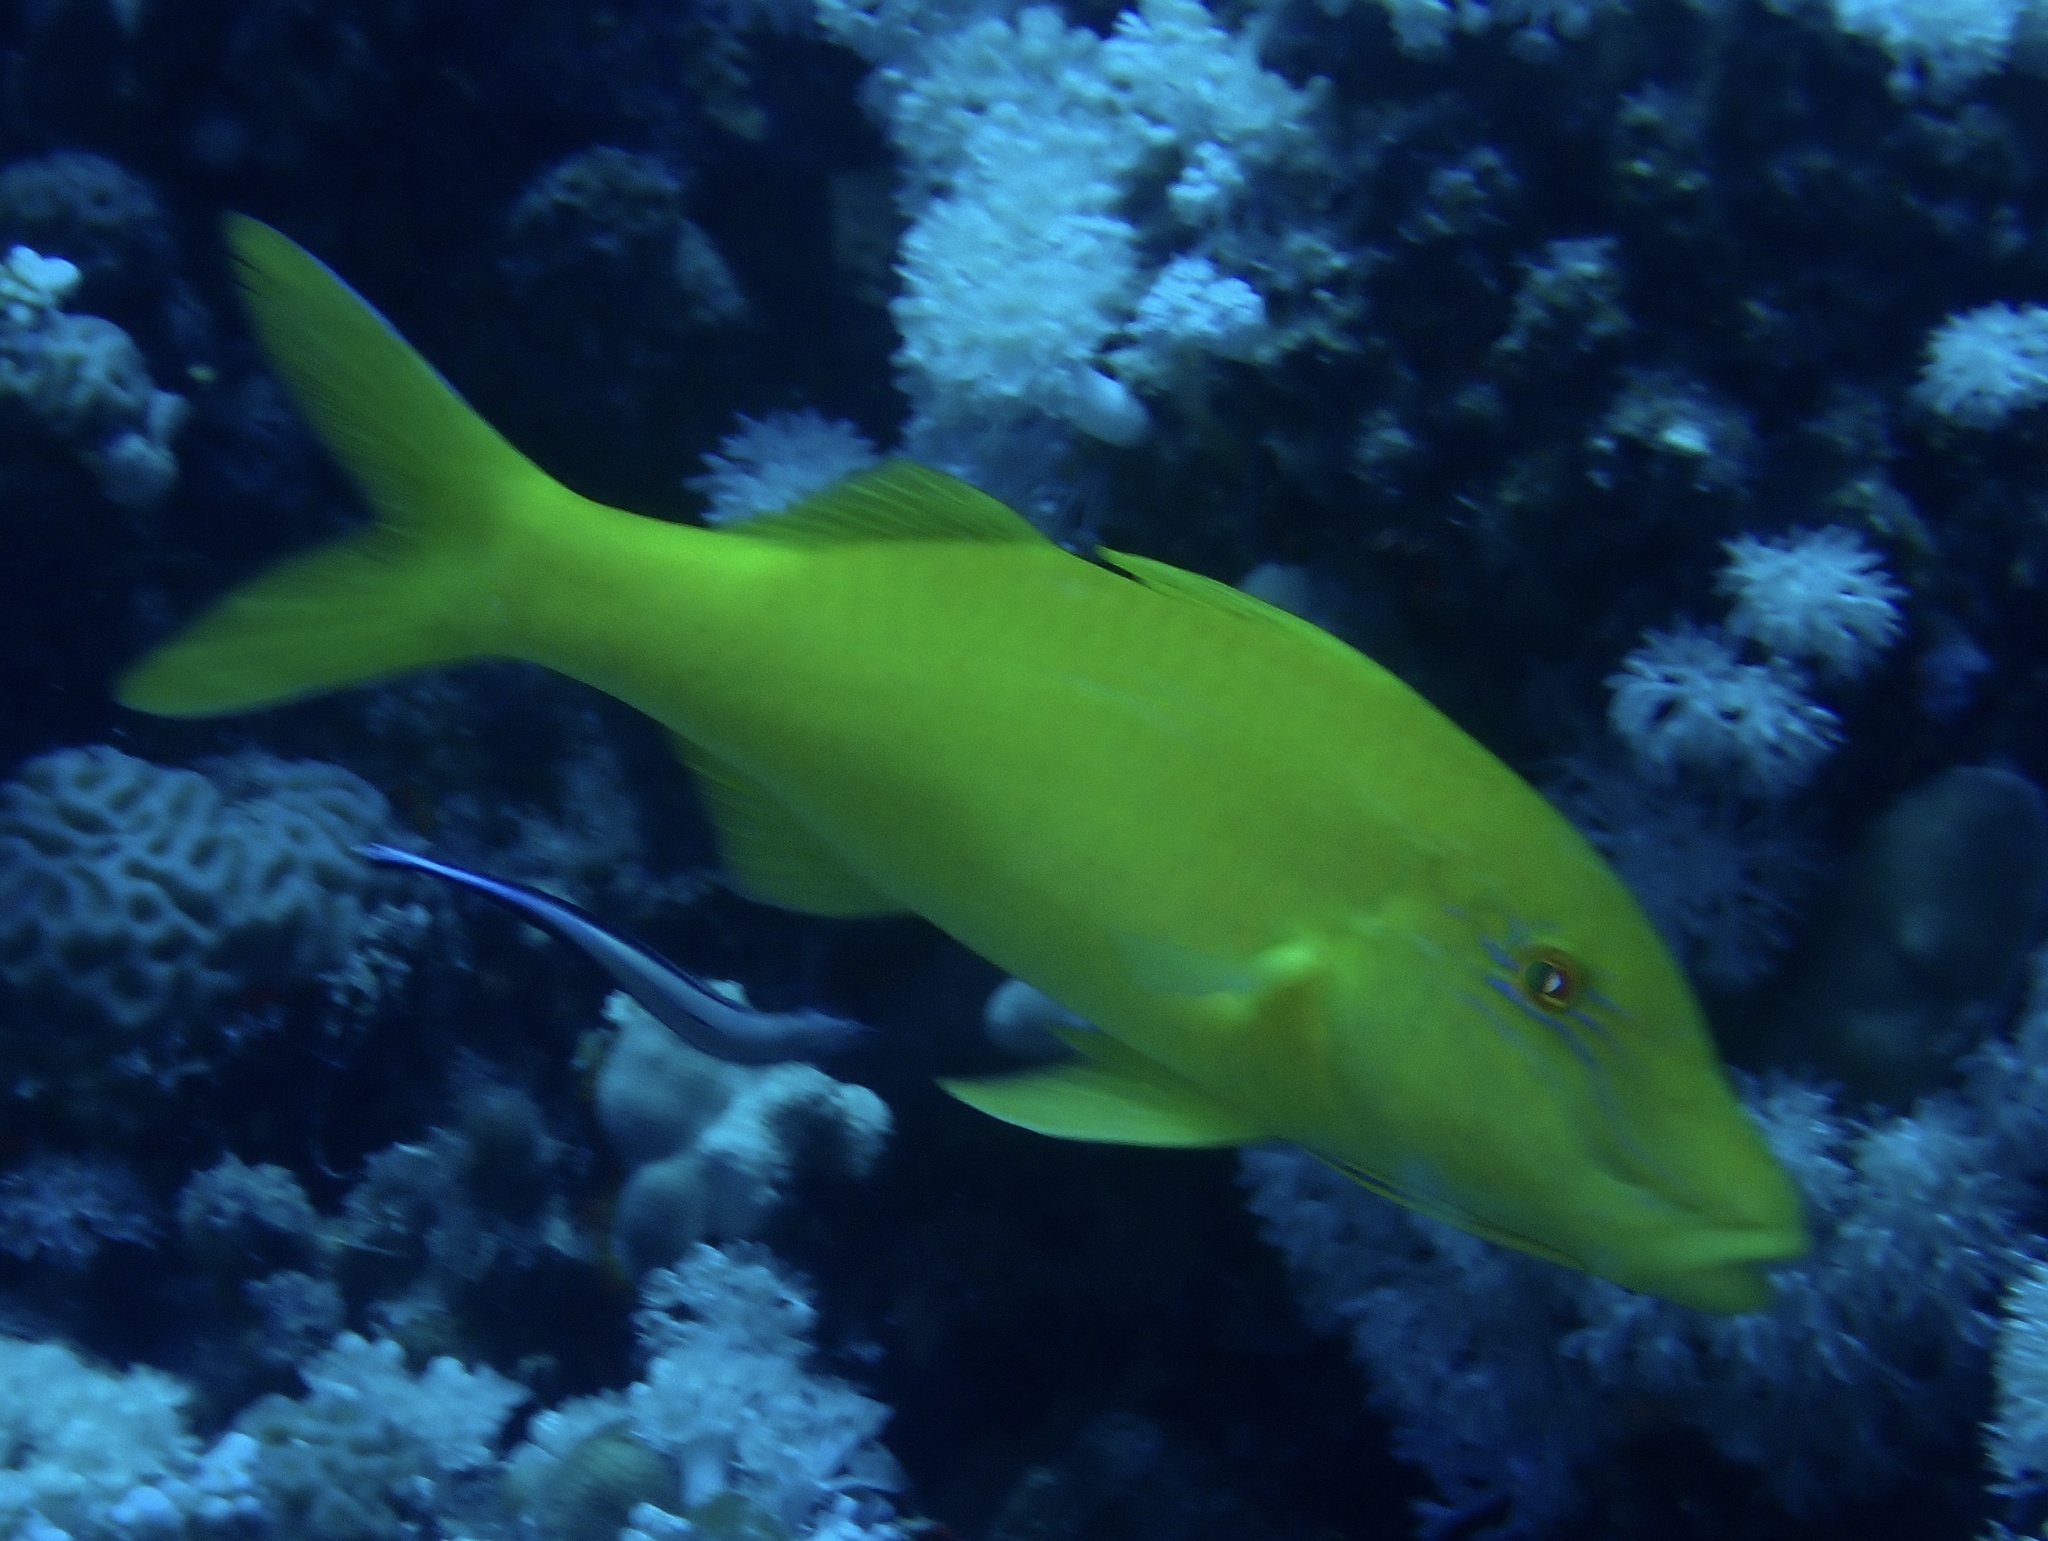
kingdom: Animalia
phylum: Chordata
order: Perciformes
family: Mullidae
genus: Parupeneus
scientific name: Parupeneus cyclostomus
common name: Goldsaddle goatfish
